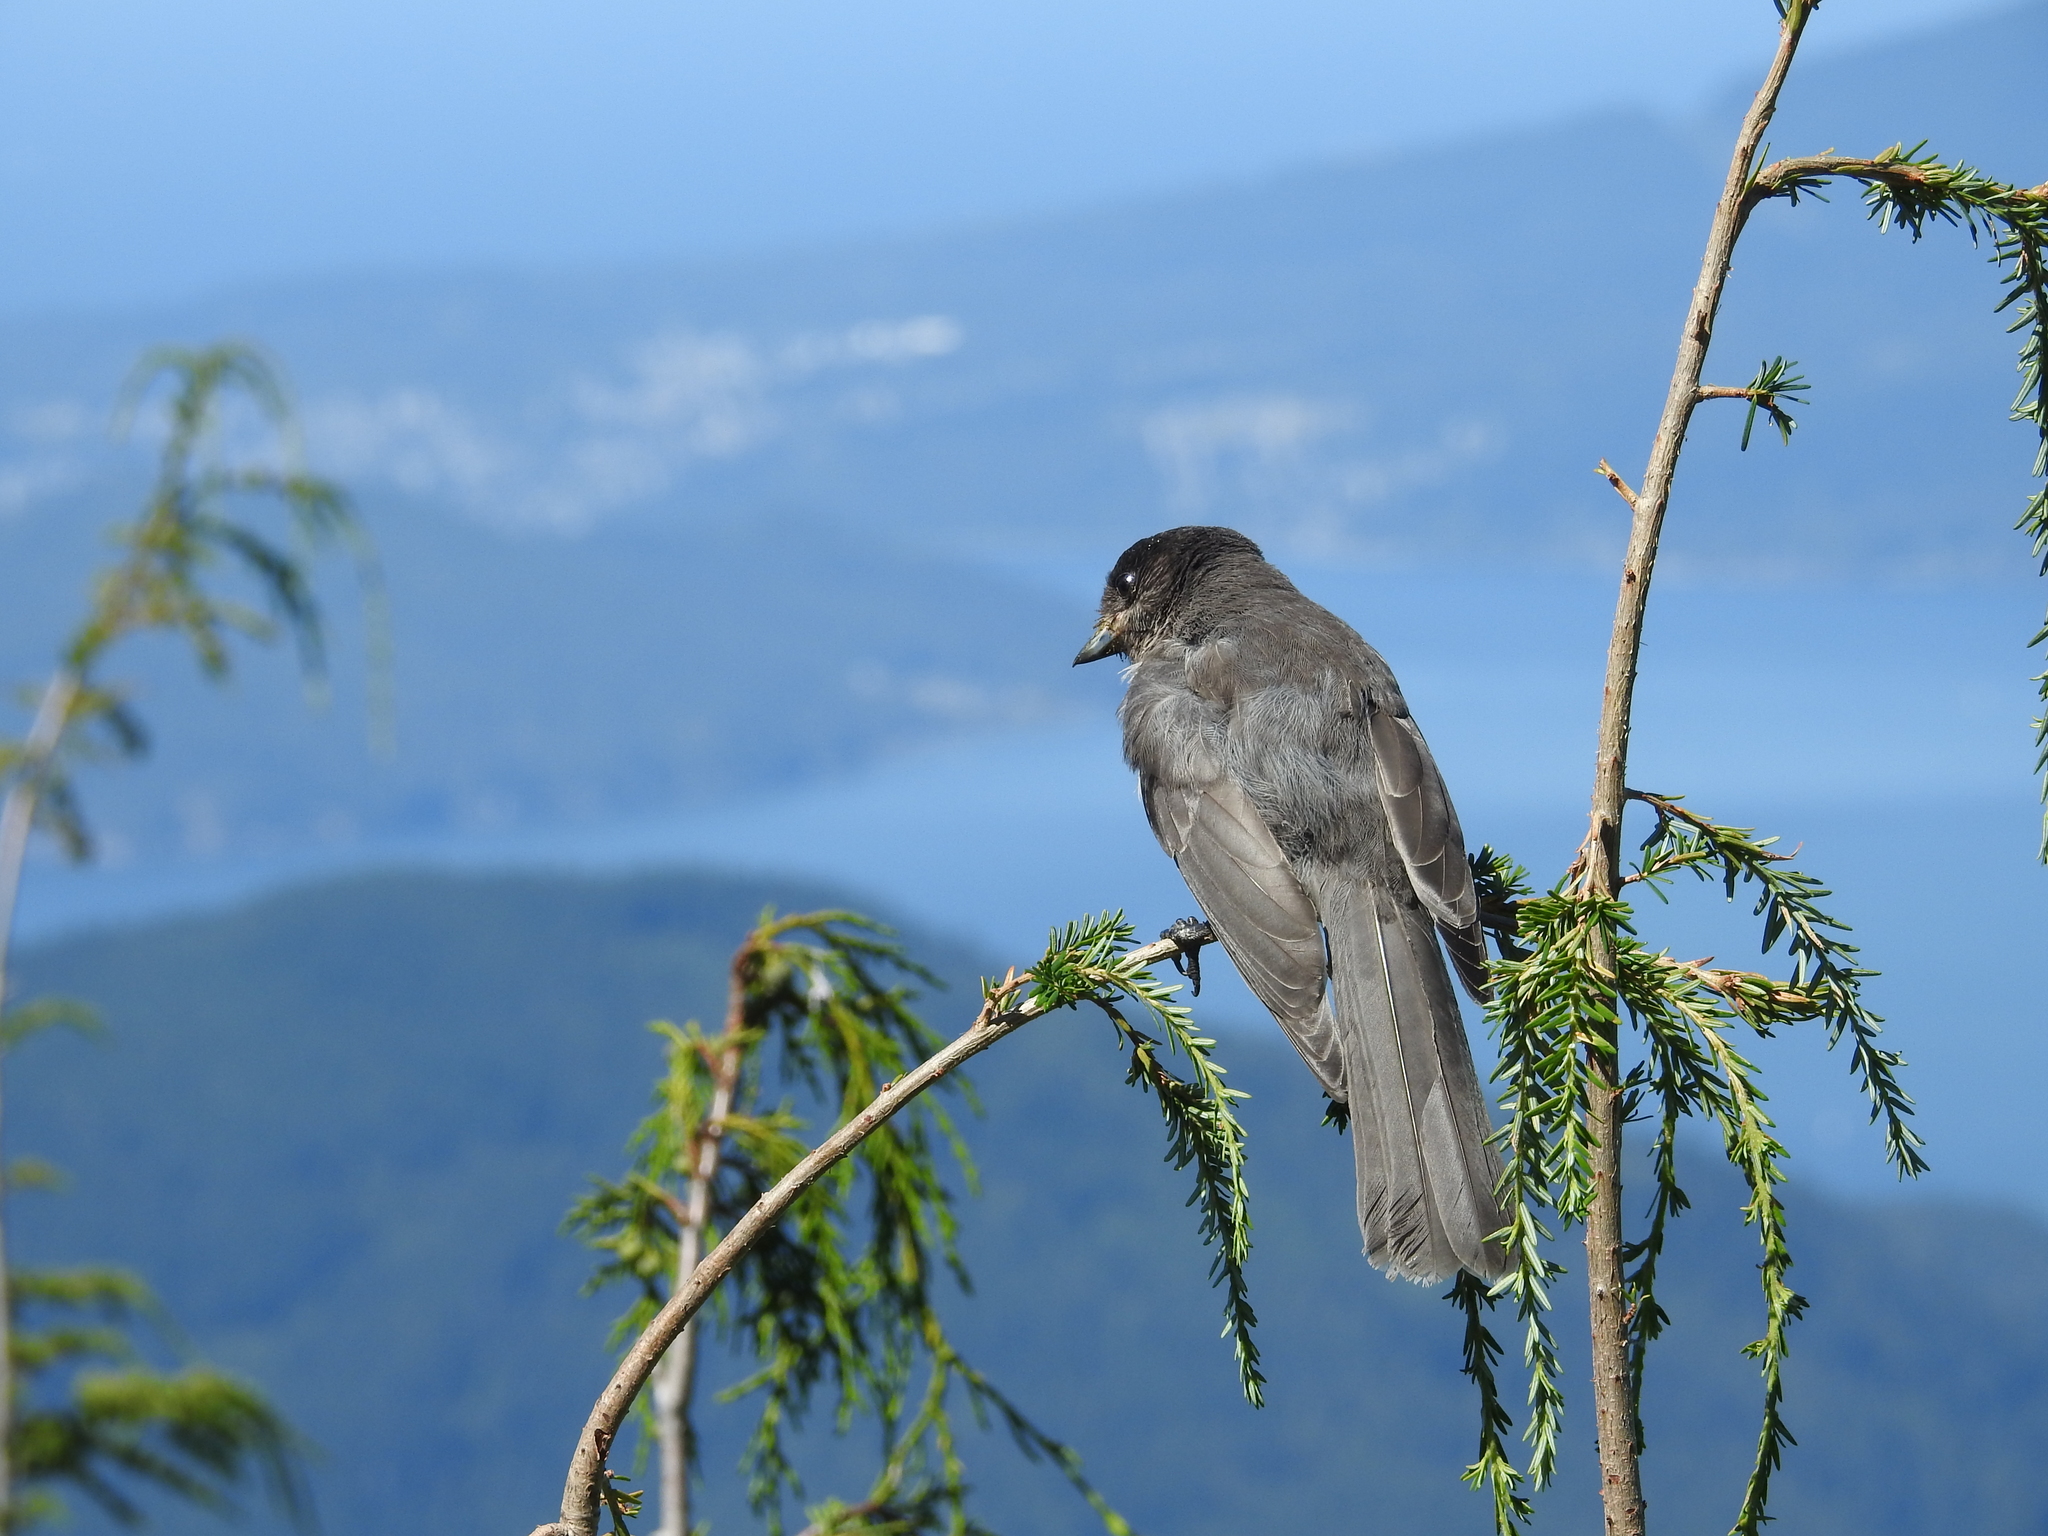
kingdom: Animalia
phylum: Chordata
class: Aves
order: Passeriformes
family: Corvidae
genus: Perisoreus
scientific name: Perisoreus canadensis
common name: Gray jay
